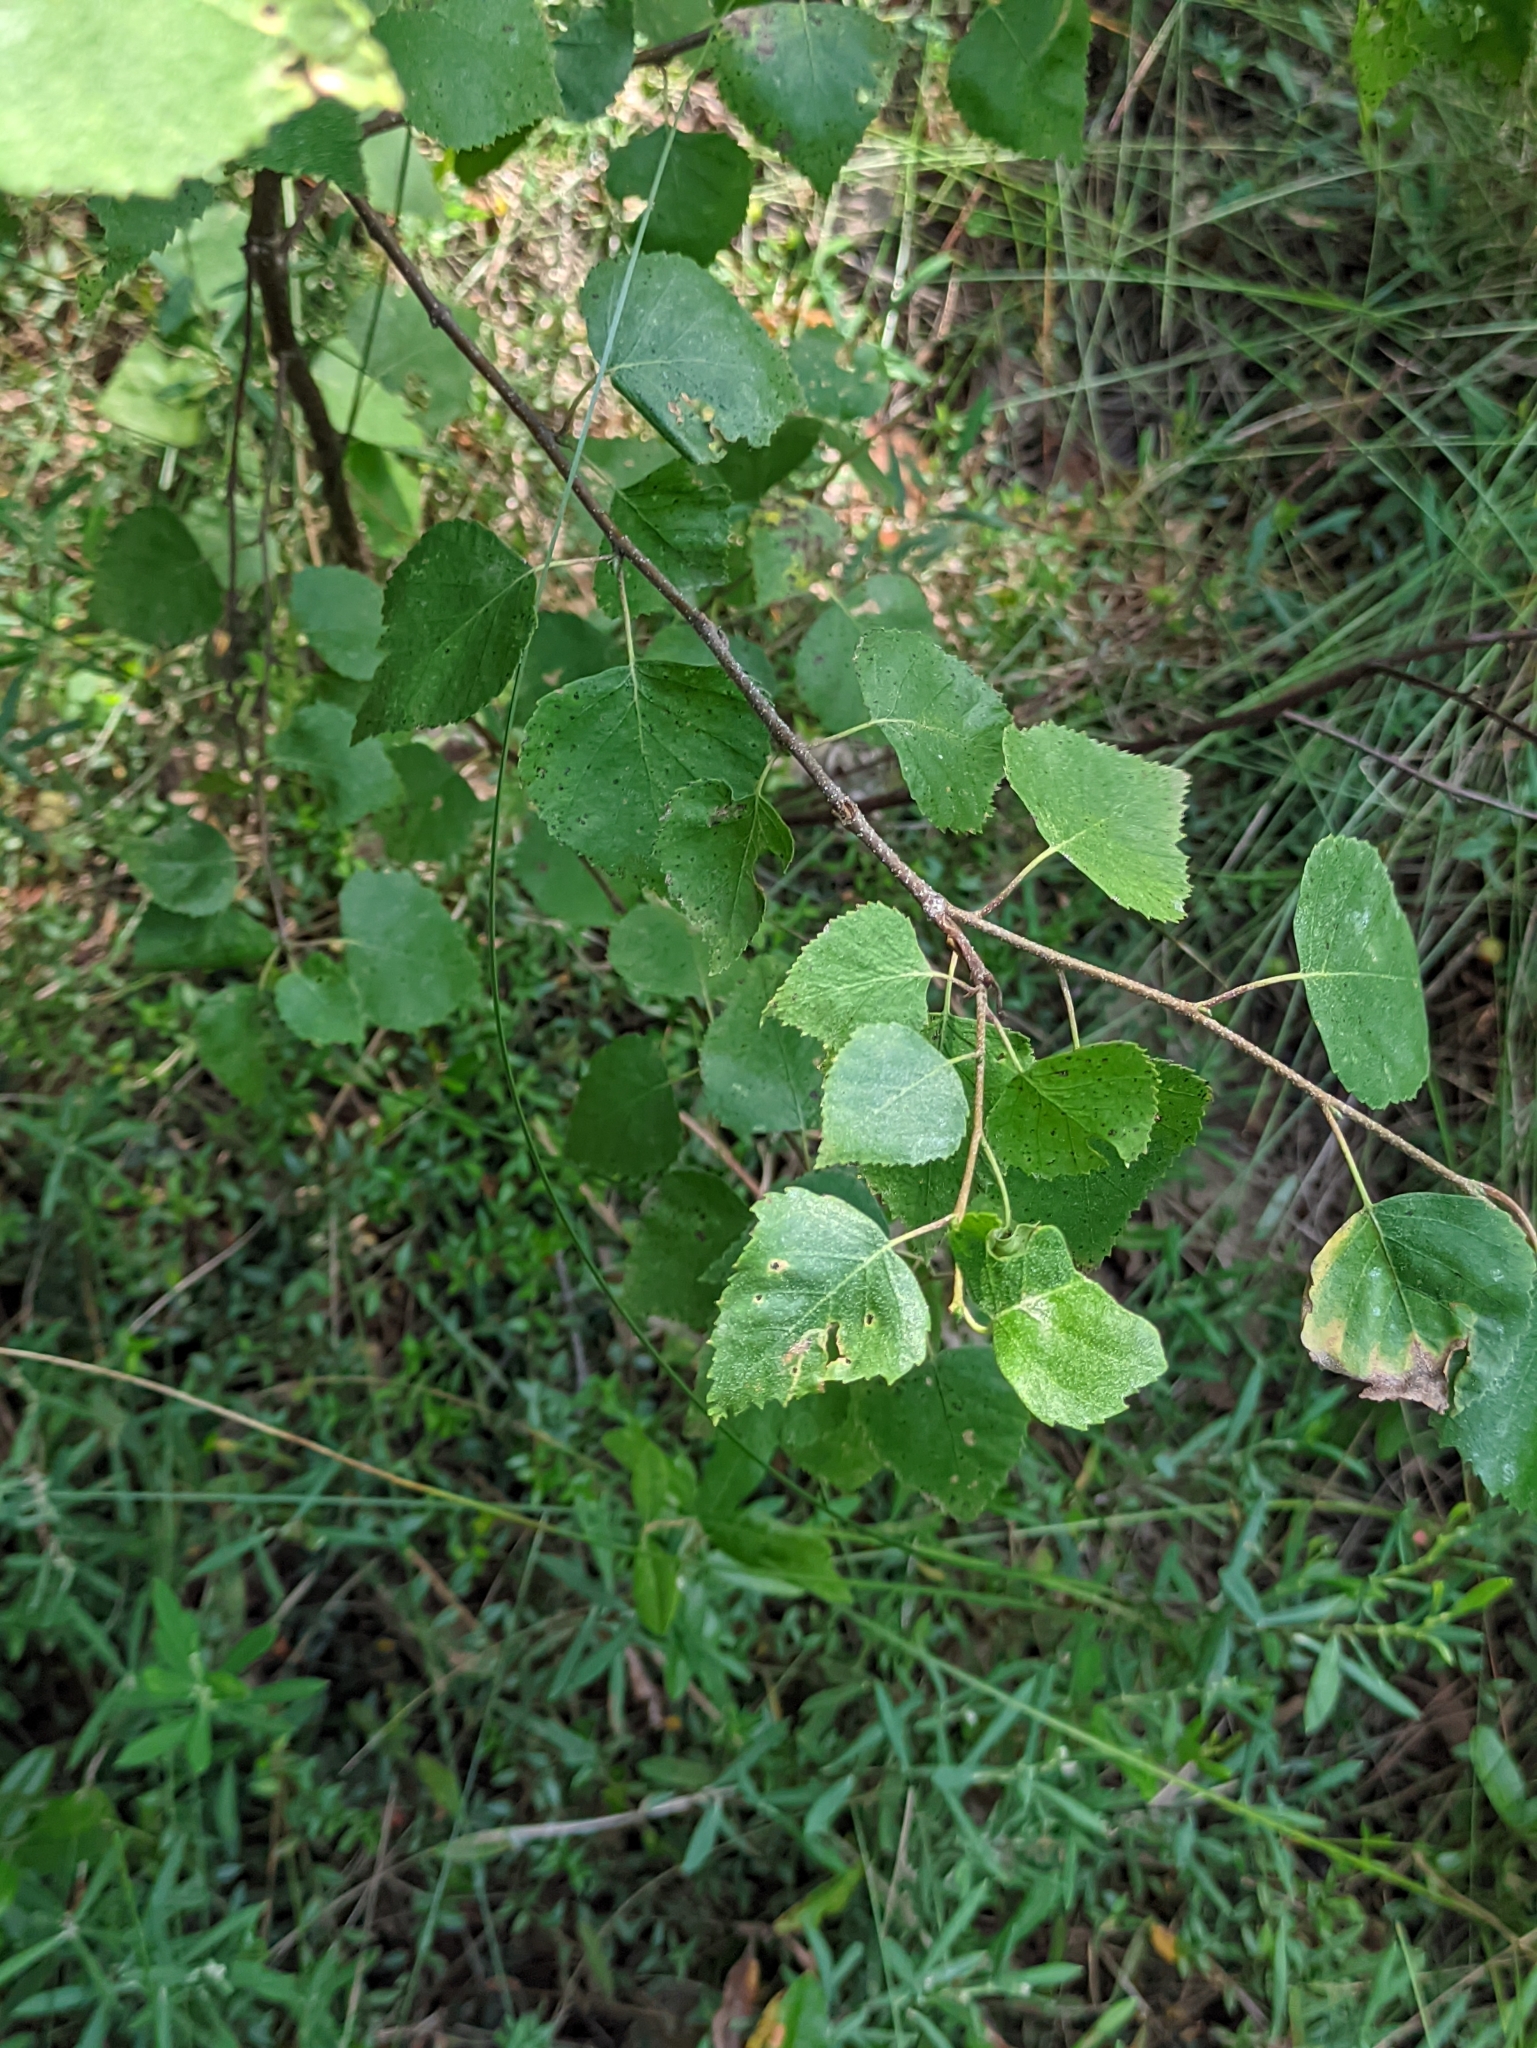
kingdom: Plantae
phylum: Tracheophyta
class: Magnoliopsida
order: Fagales
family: Betulaceae
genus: Betula
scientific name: Betula pendula
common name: Silver birch
